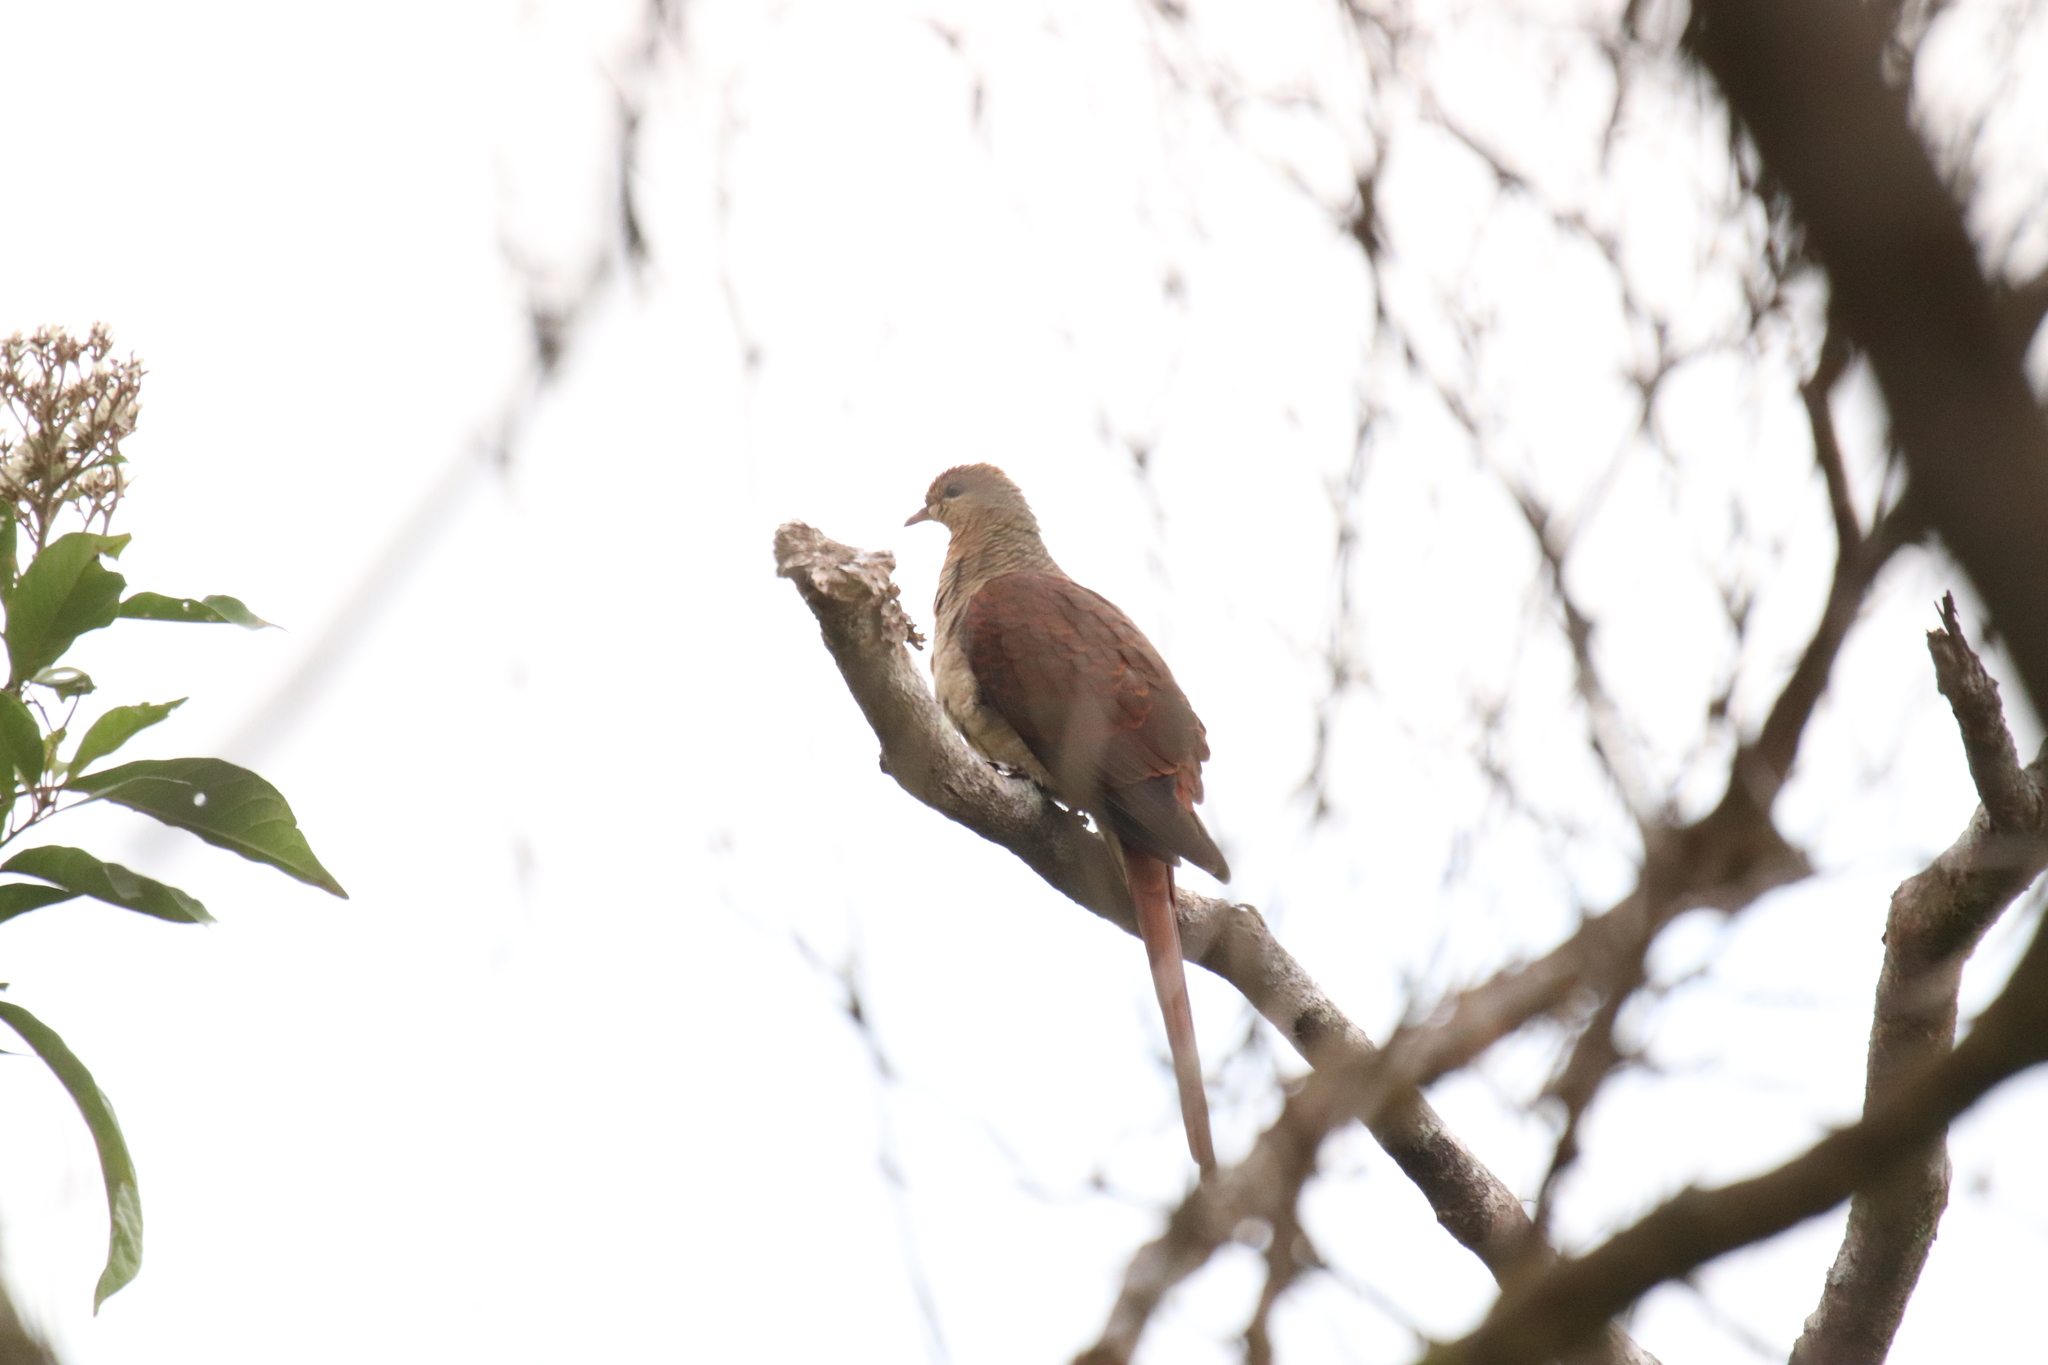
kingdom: Animalia
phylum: Chordata
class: Aves
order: Columbiformes
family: Columbidae
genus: Macropygia
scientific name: Macropygia doreya
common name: Sultan's cuckoo-dove
